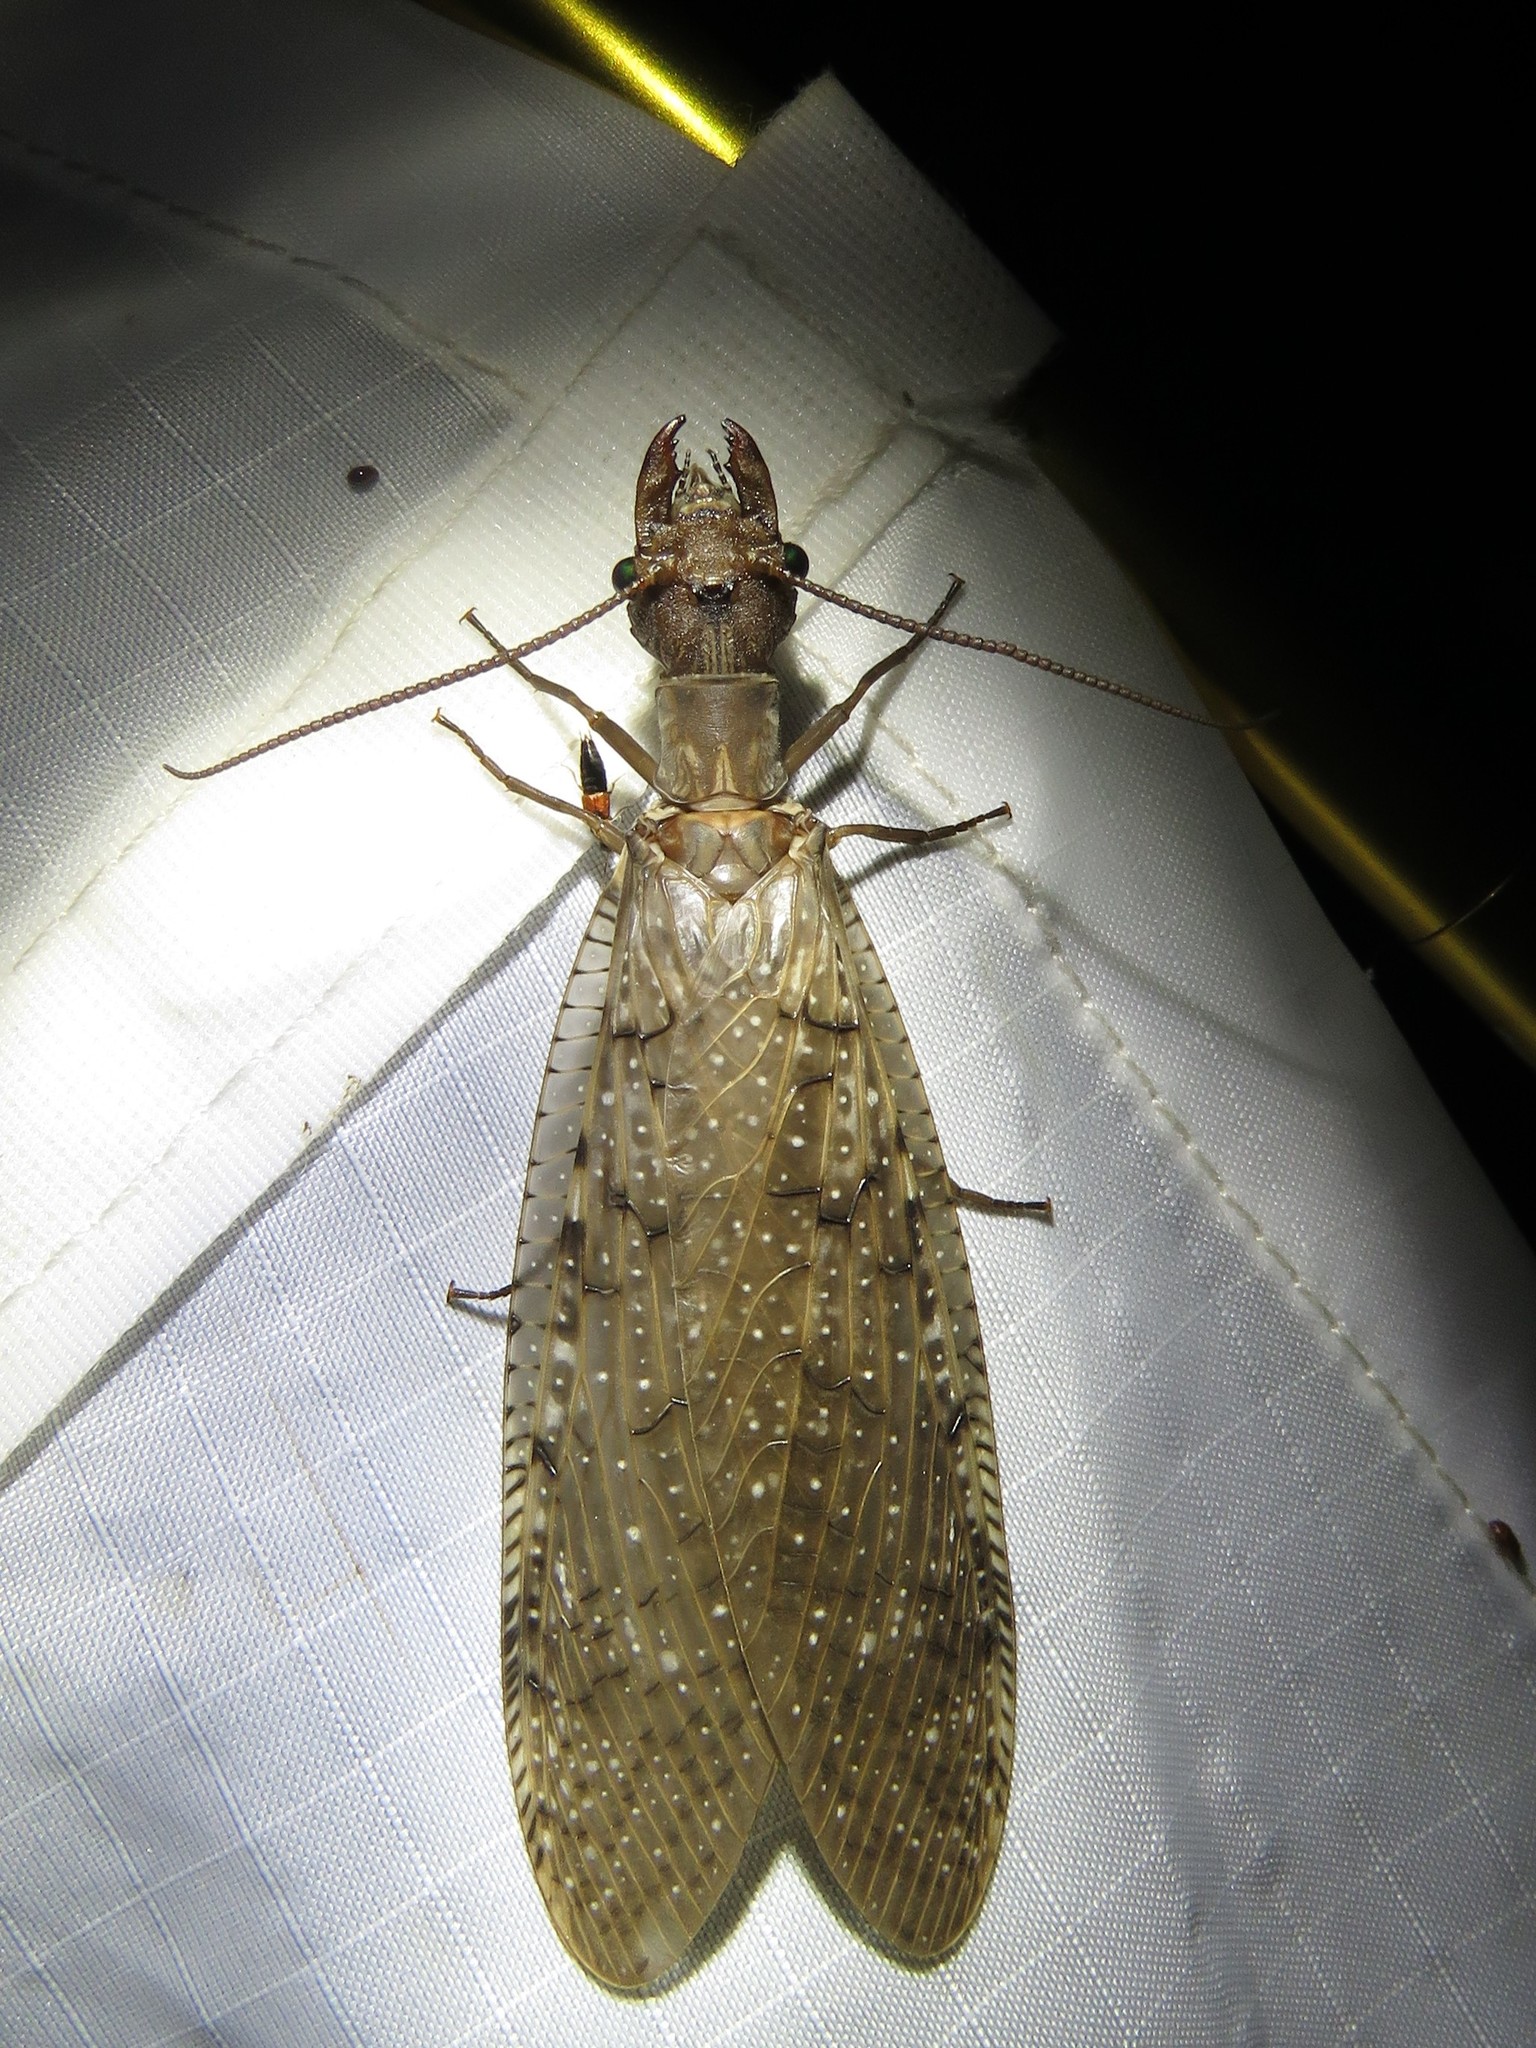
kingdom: Animalia
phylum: Arthropoda
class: Insecta
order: Megaloptera
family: Corydalidae
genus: Corydalus
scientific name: Corydalus cornutus
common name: Dobsonfly
